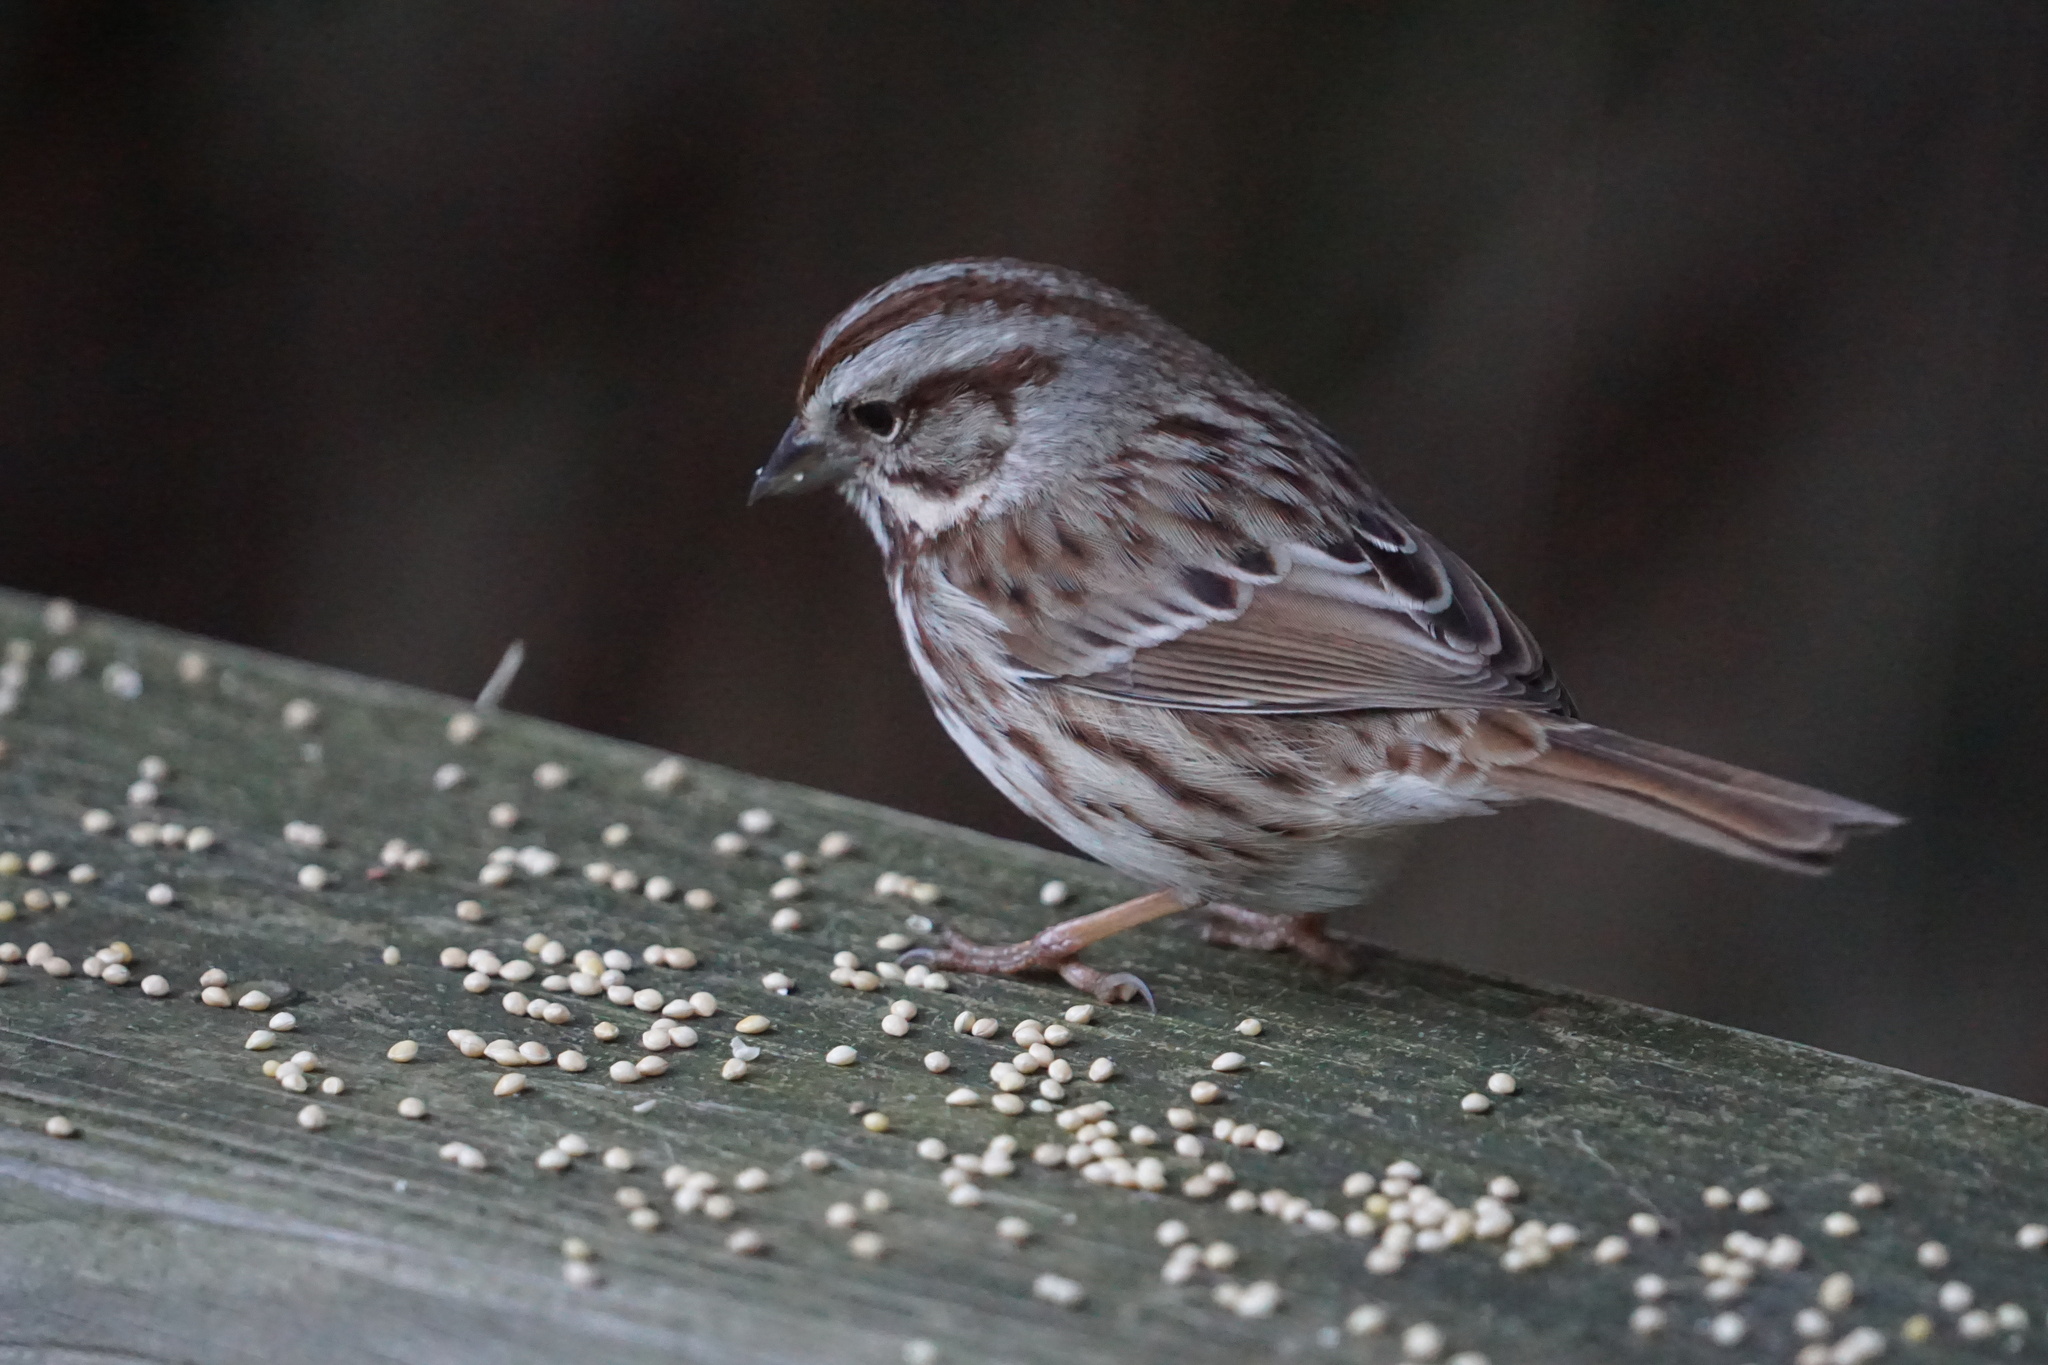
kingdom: Animalia
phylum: Chordata
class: Aves
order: Passeriformes
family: Passerellidae
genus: Melospiza
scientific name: Melospiza melodia
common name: Song sparrow
